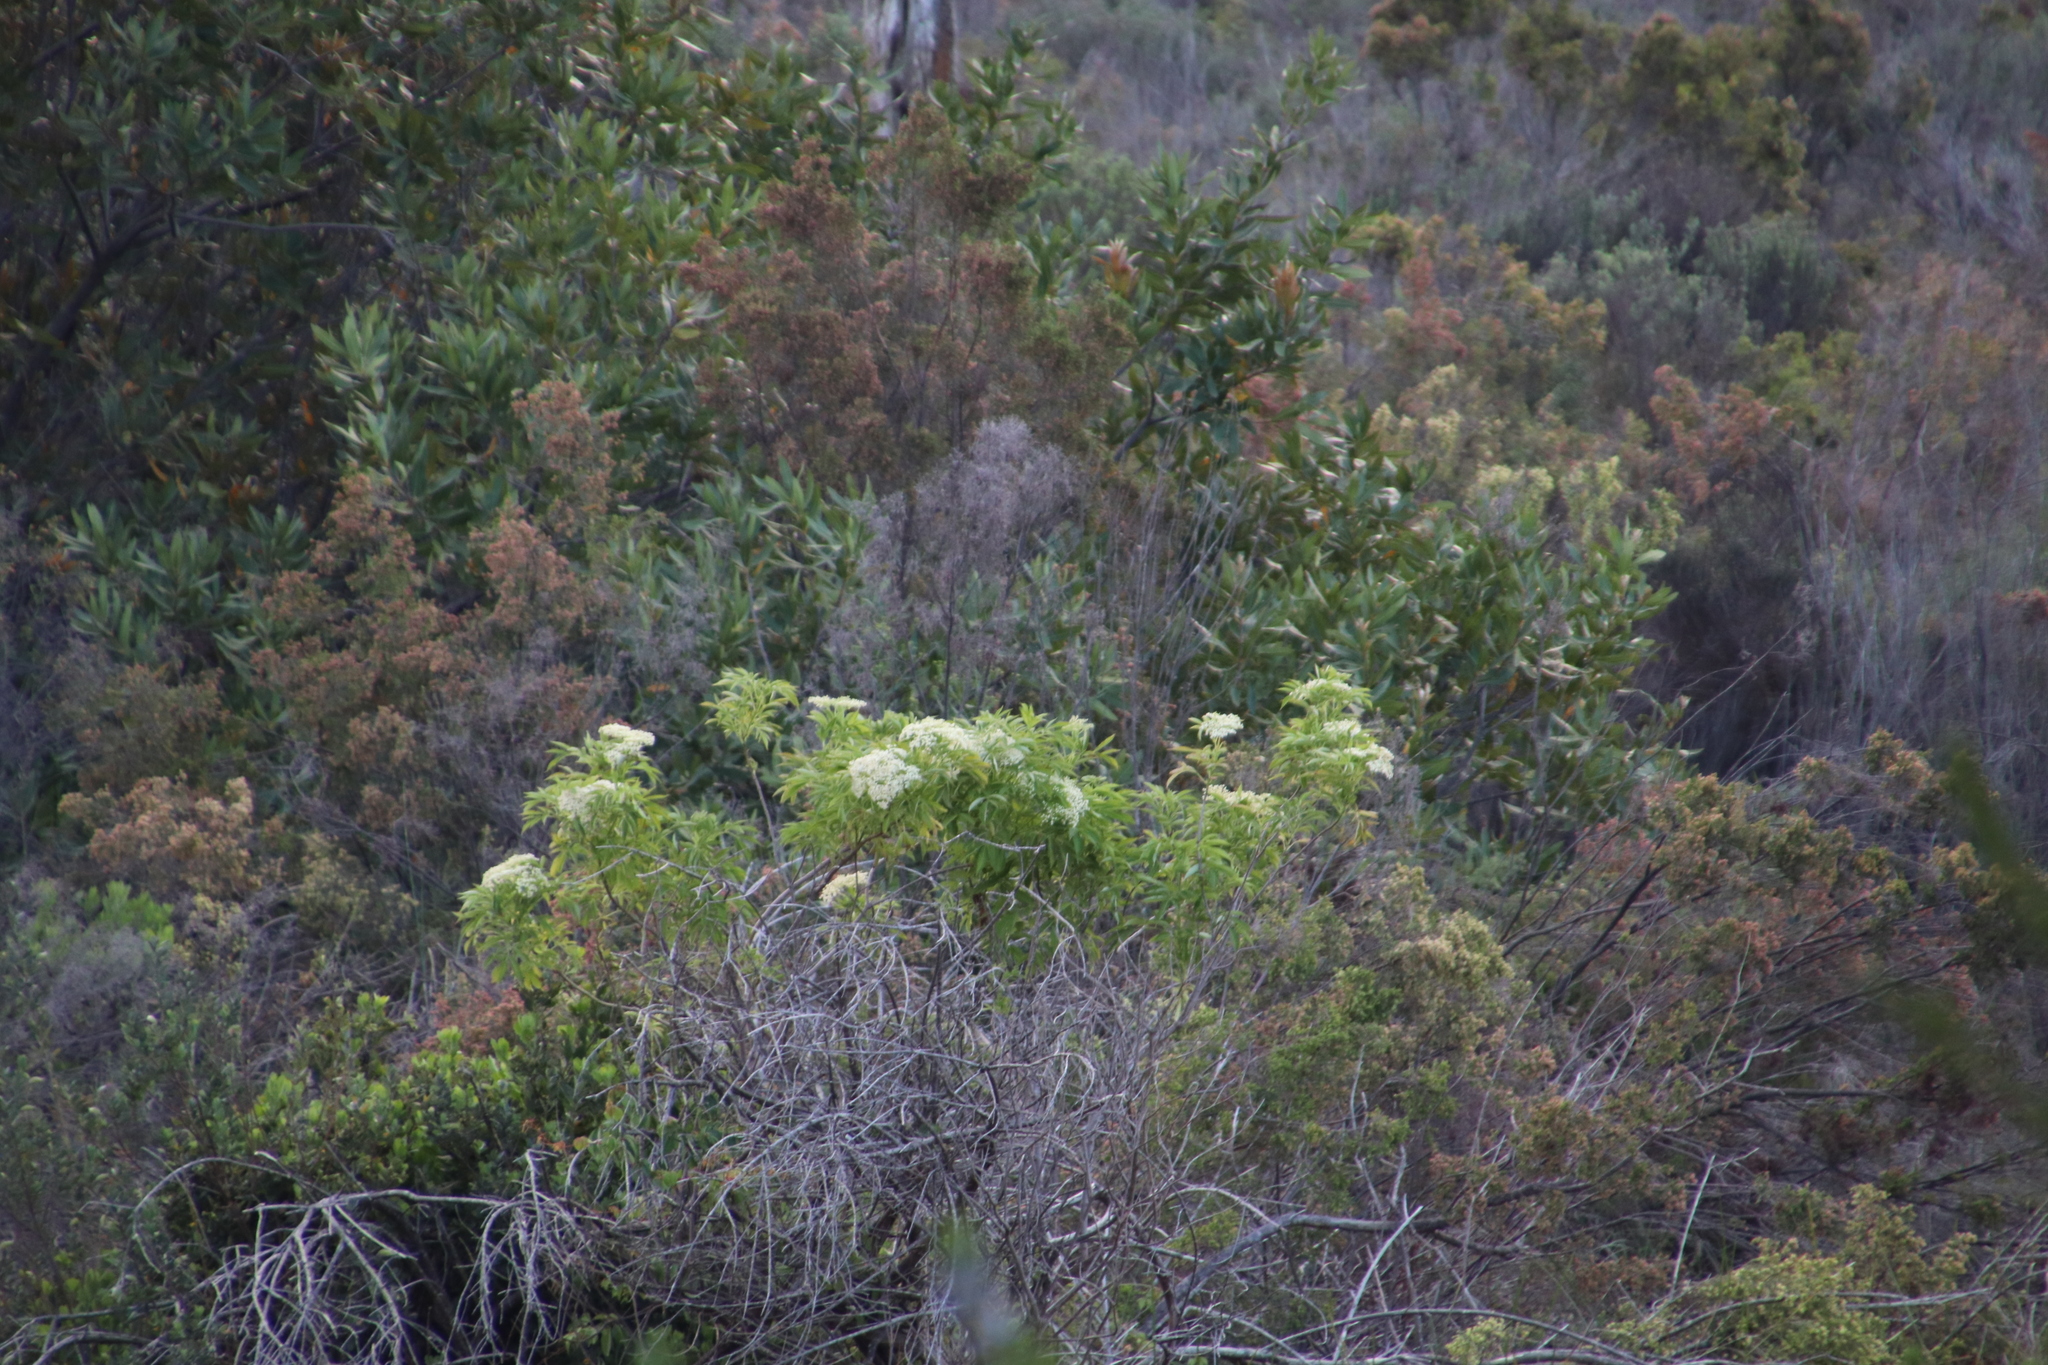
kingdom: Plantae
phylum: Tracheophyta
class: Magnoliopsida
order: Dipsacales
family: Viburnaceae
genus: Sambucus
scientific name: Sambucus nigra
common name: Elder
